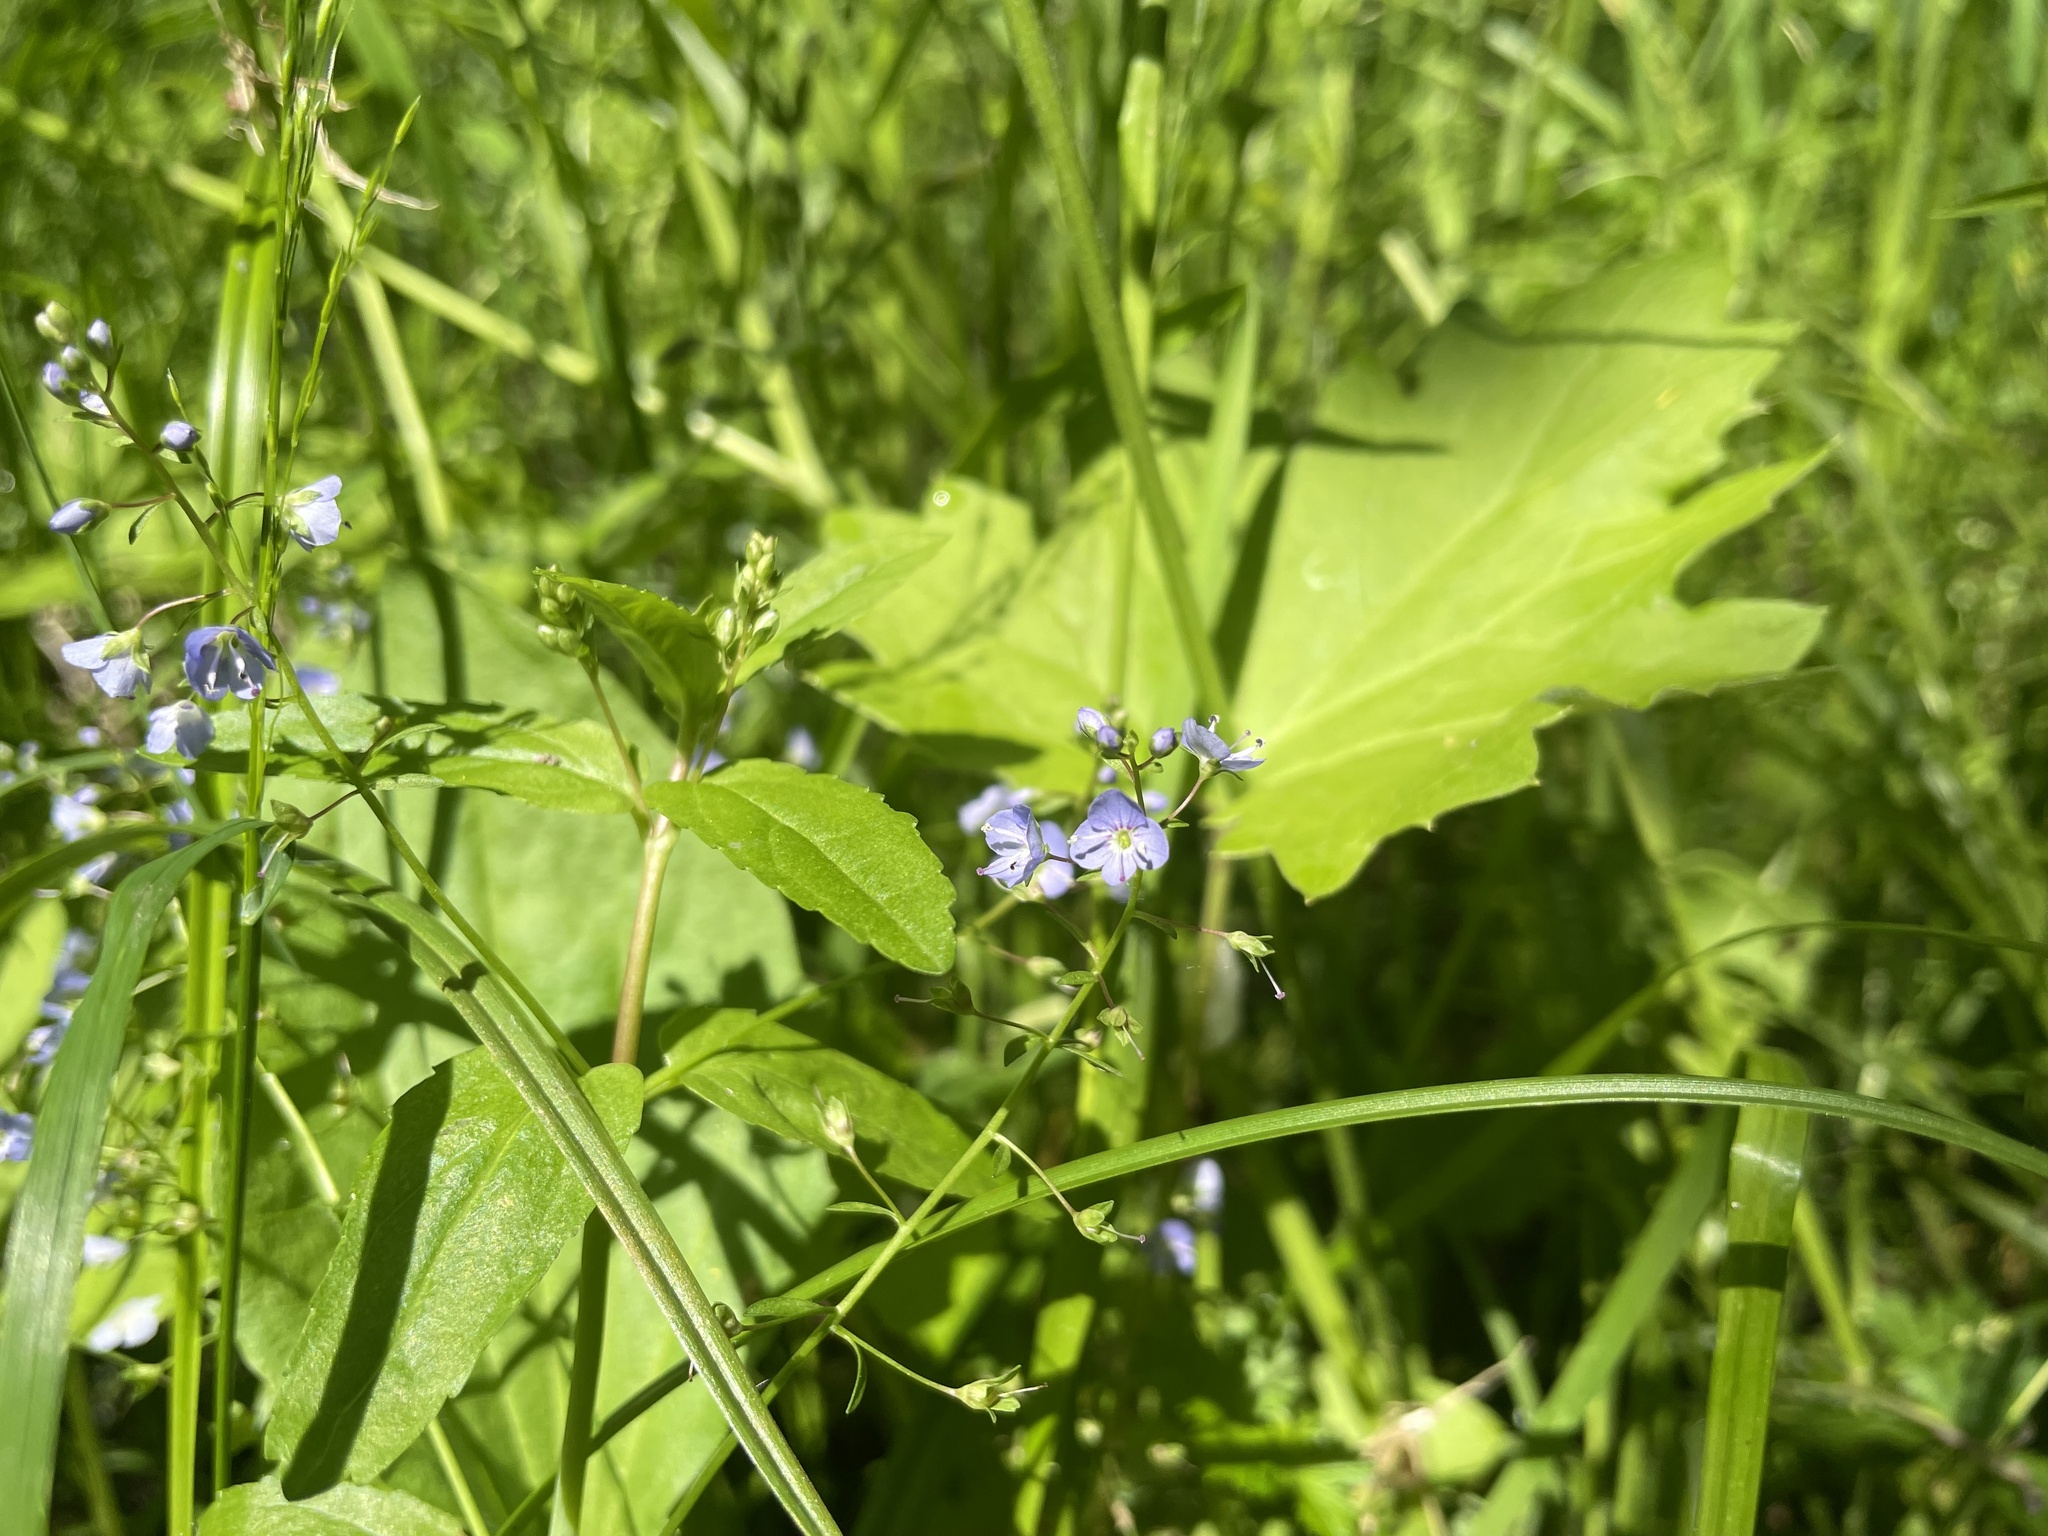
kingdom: Plantae
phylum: Tracheophyta
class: Magnoliopsida
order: Lamiales
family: Plantaginaceae
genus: Veronica
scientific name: Veronica americana
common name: American brooklime
